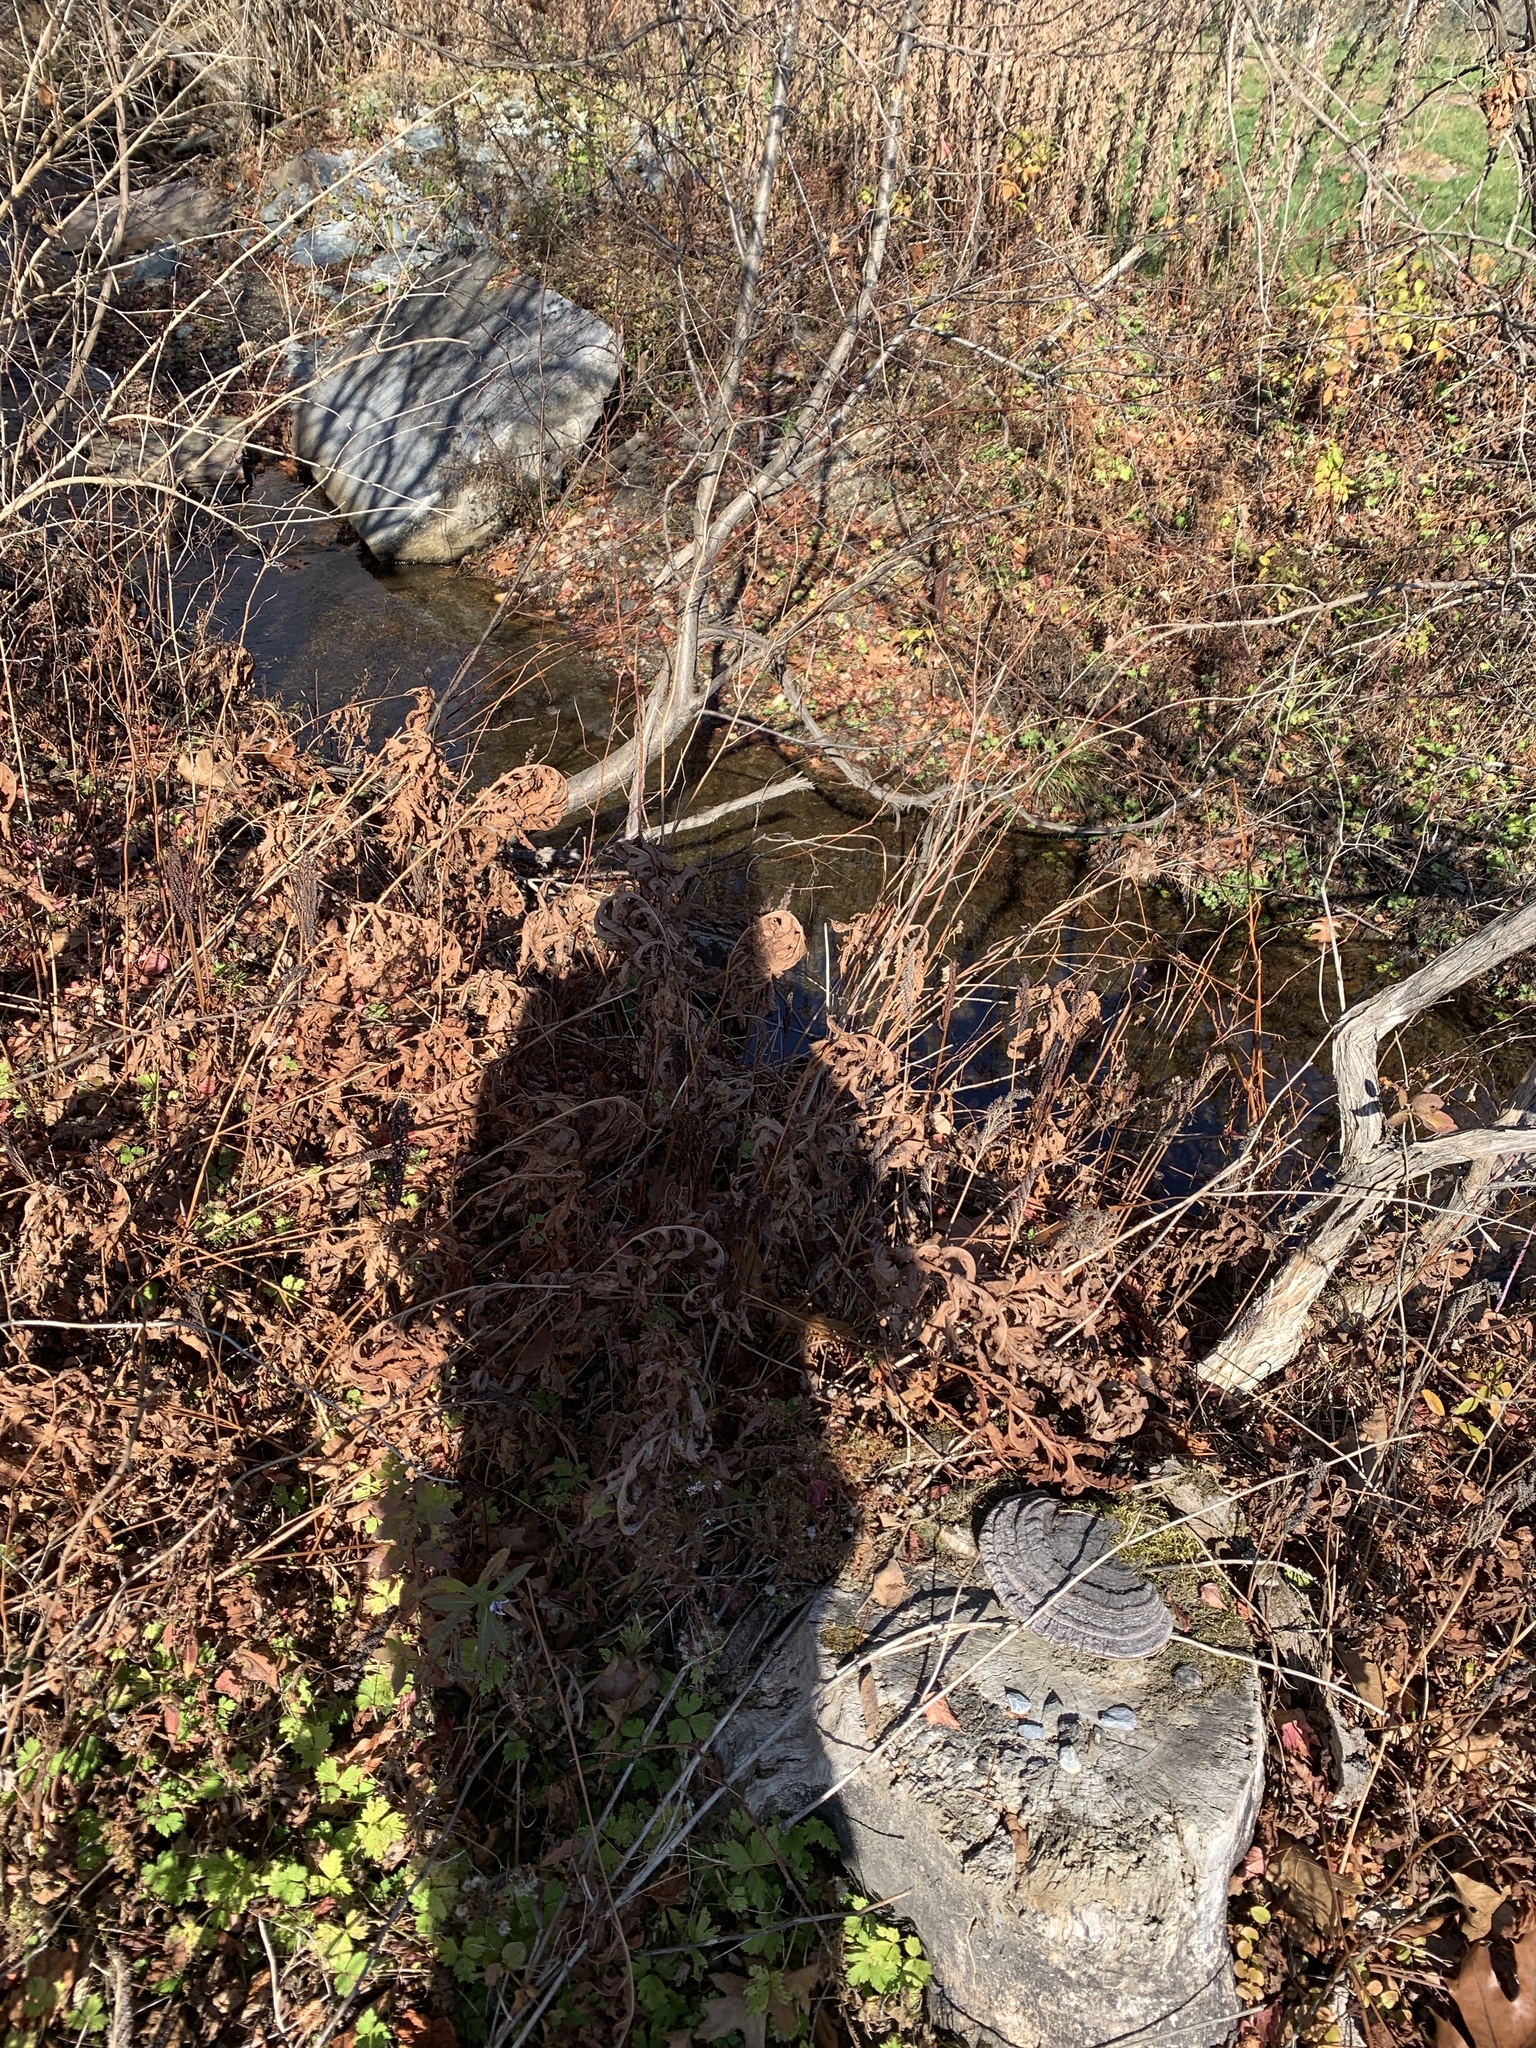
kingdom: Plantae
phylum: Tracheophyta
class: Polypodiopsida
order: Polypodiales
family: Onocleaceae
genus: Onoclea
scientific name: Onoclea sensibilis
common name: Sensitive fern
